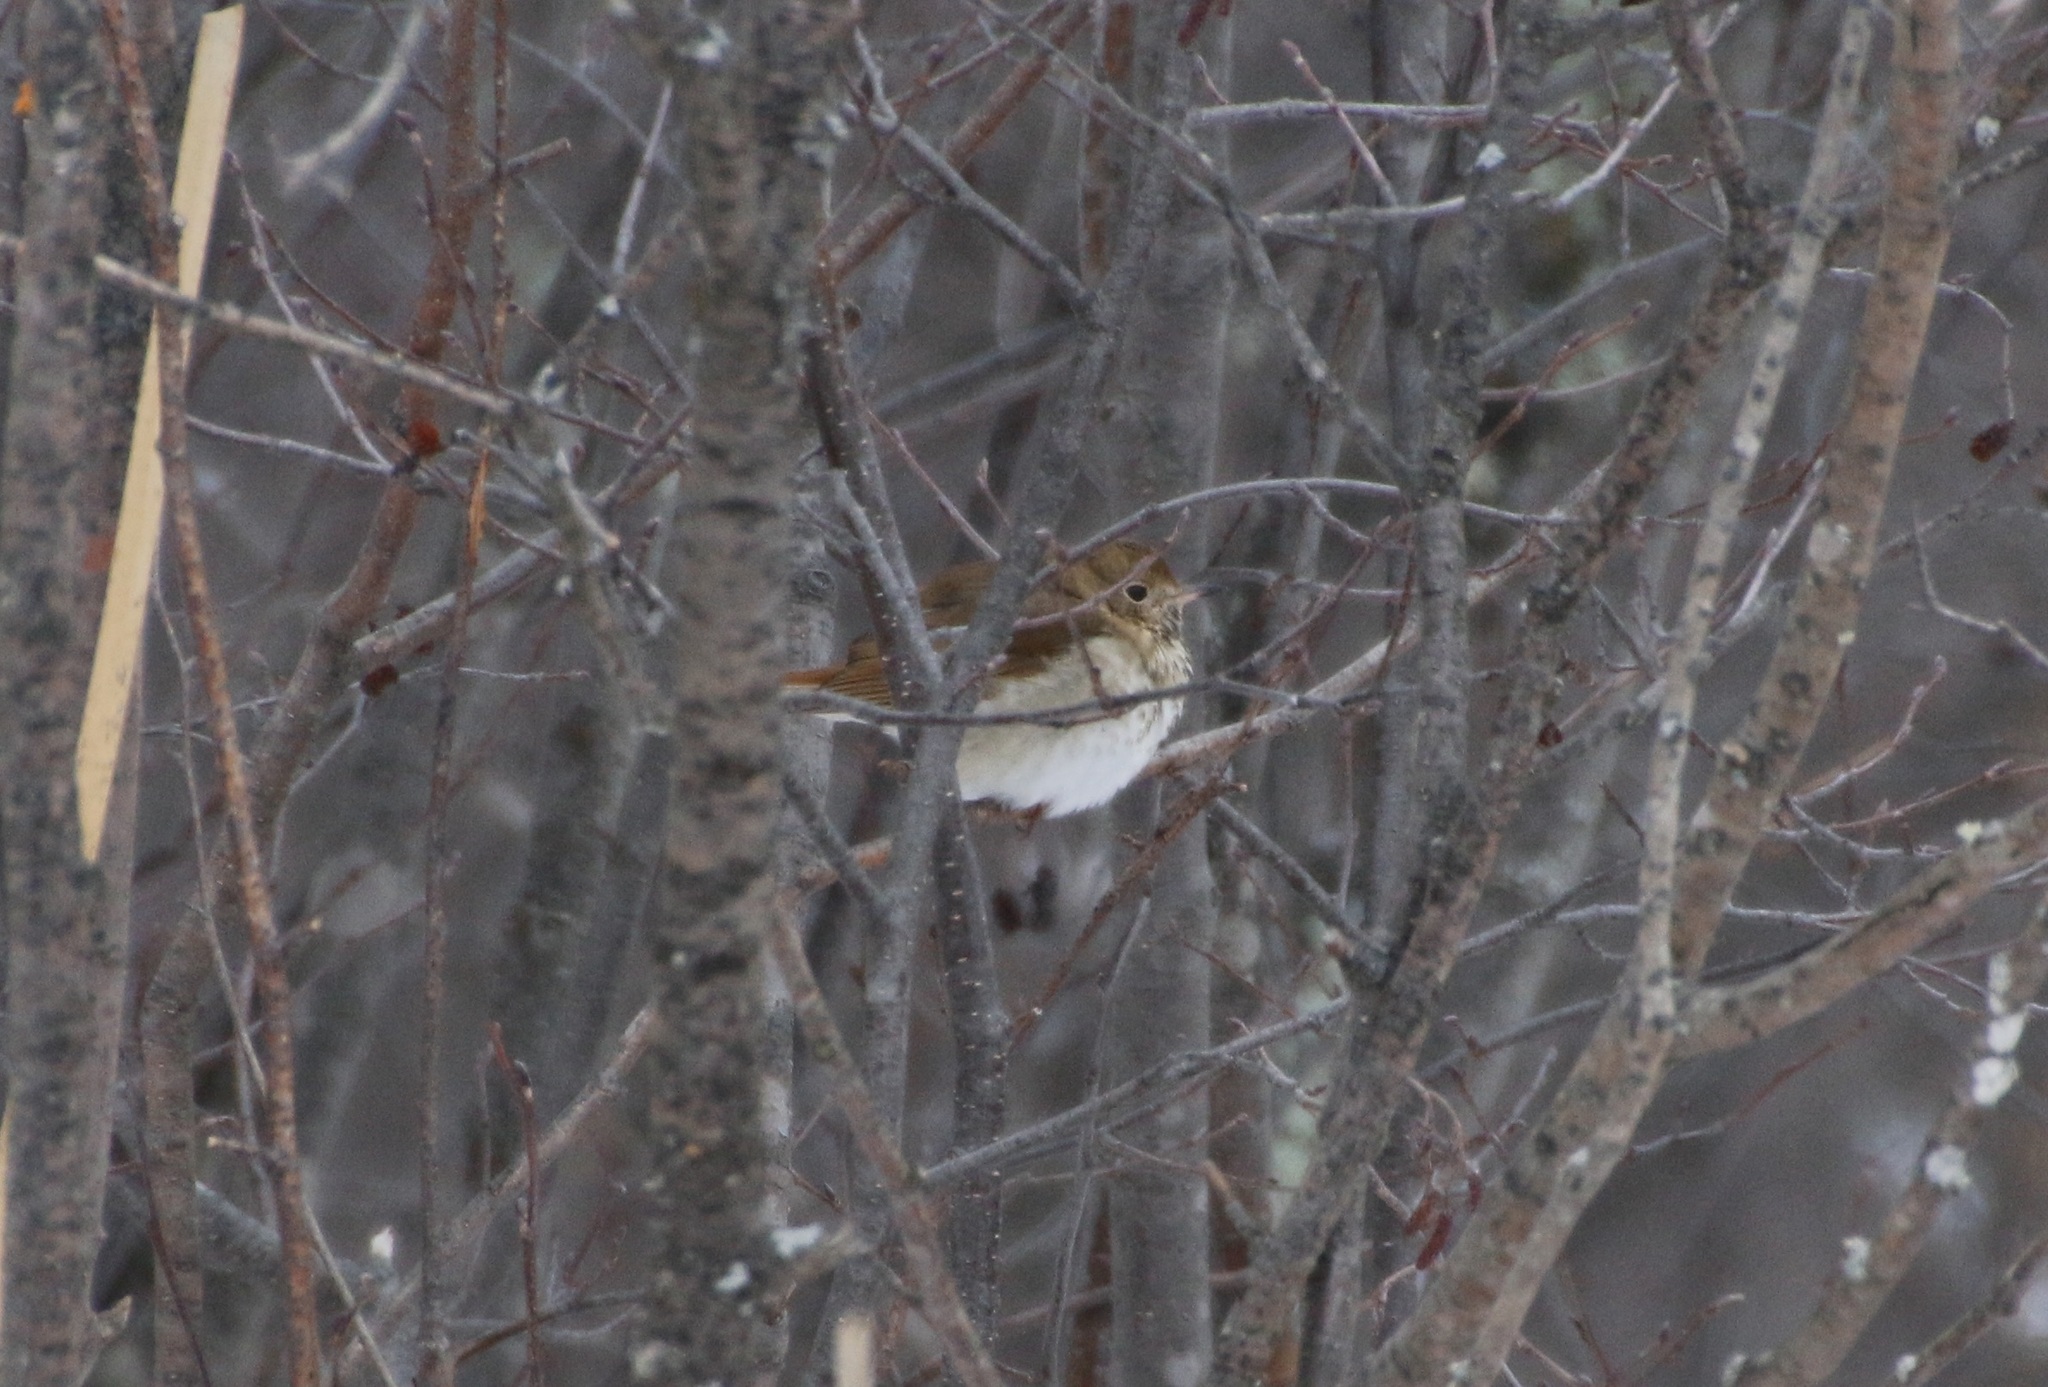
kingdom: Animalia
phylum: Chordata
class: Aves
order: Passeriformes
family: Turdidae
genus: Catharus
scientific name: Catharus guttatus
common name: Hermit thrush
